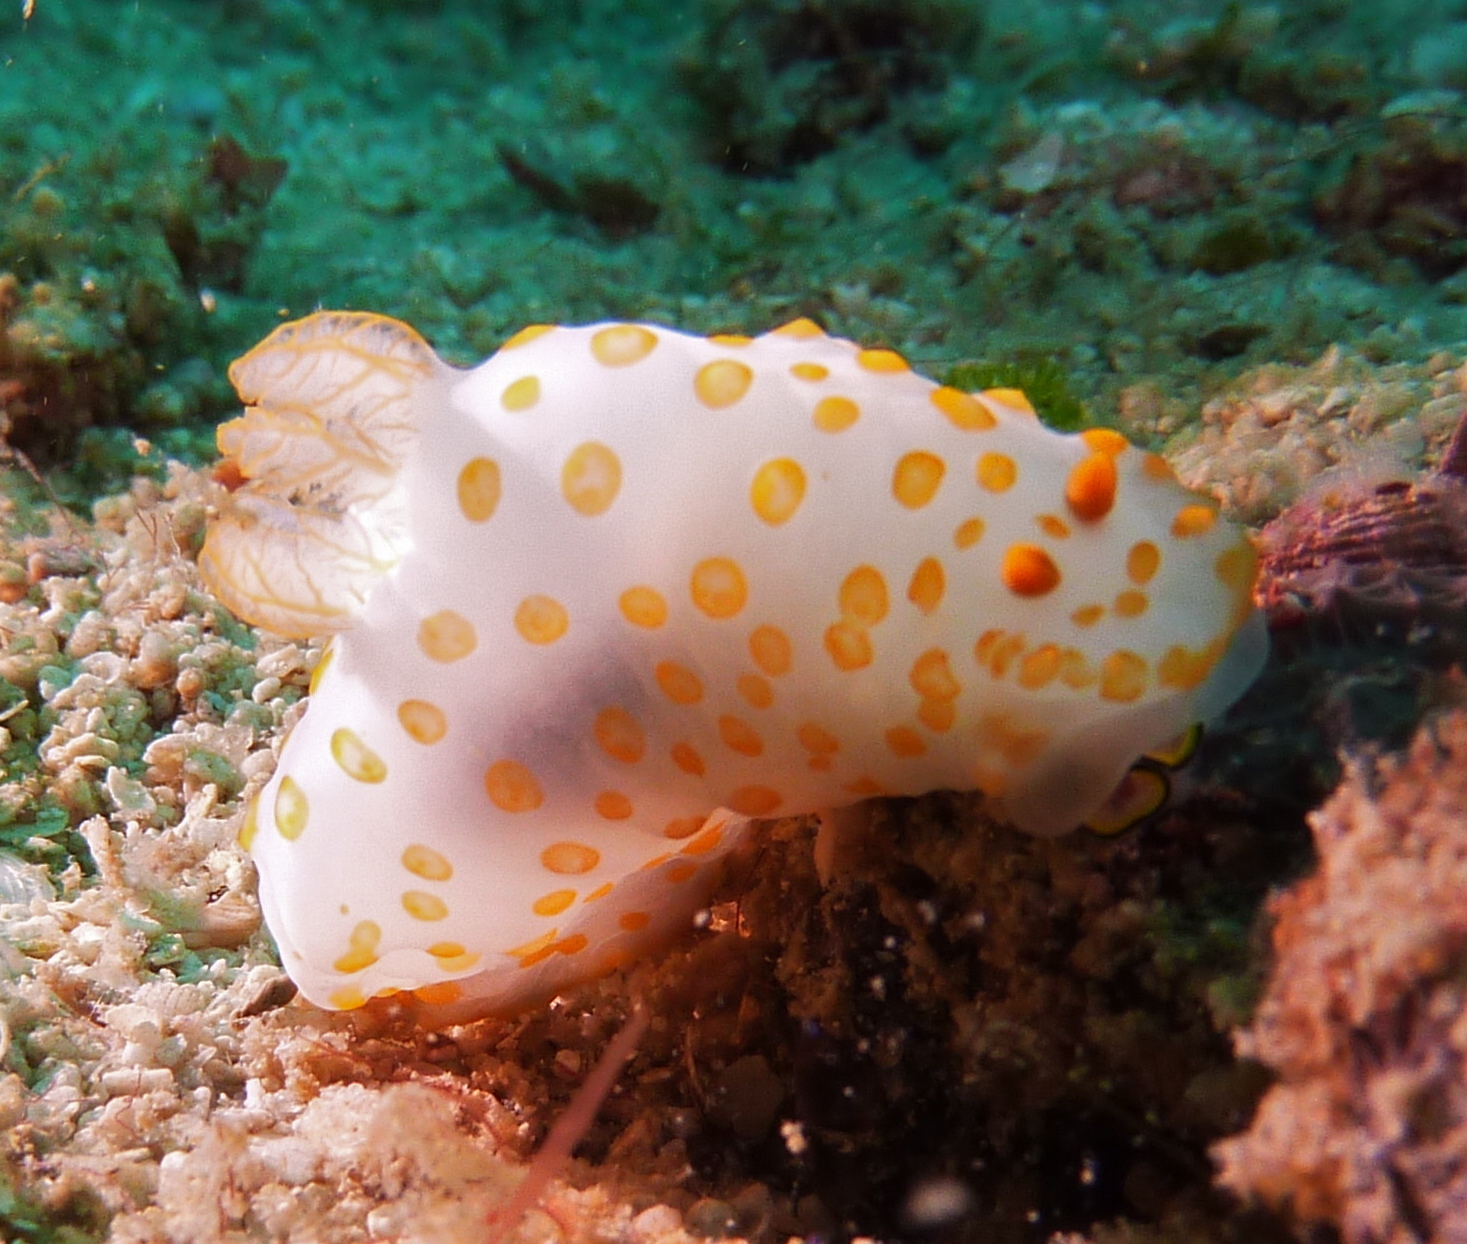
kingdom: Animalia
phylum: Mollusca
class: Gastropoda
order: Nudibranchia
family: Polyceridae
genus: Gymnodoris
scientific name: Gymnodoris impudica
